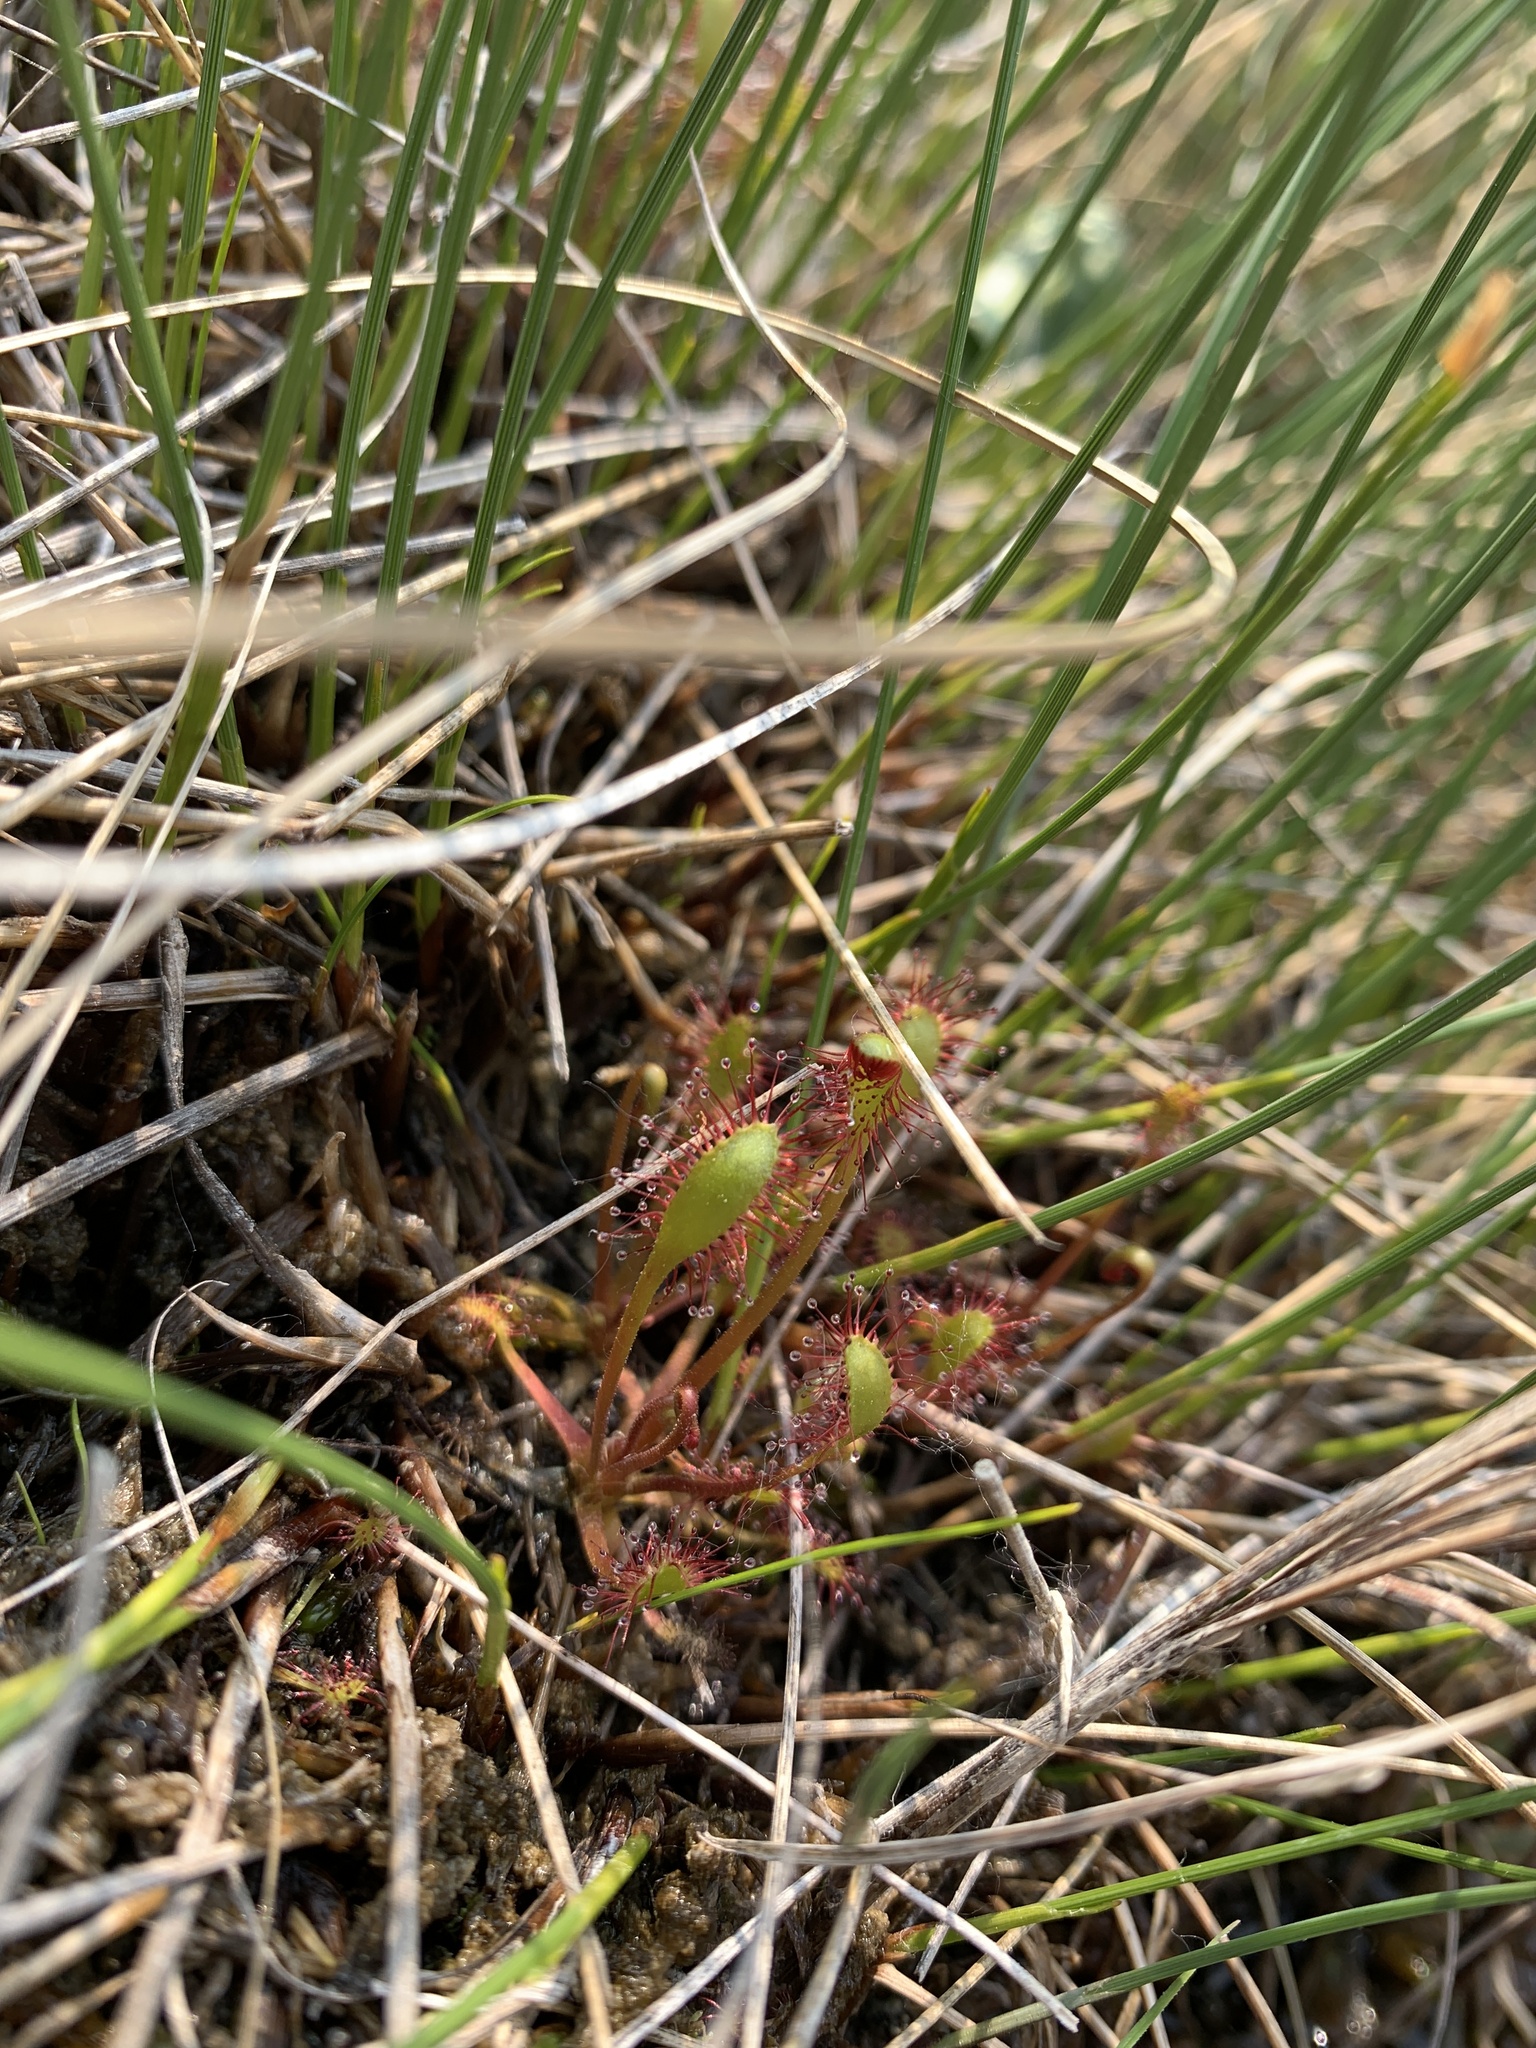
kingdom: Plantae
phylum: Tracheophyta
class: Magnoliopsida
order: Caryophyllales
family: Droseraceae
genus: Drosera
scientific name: Drosera anglica
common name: Great sundew
